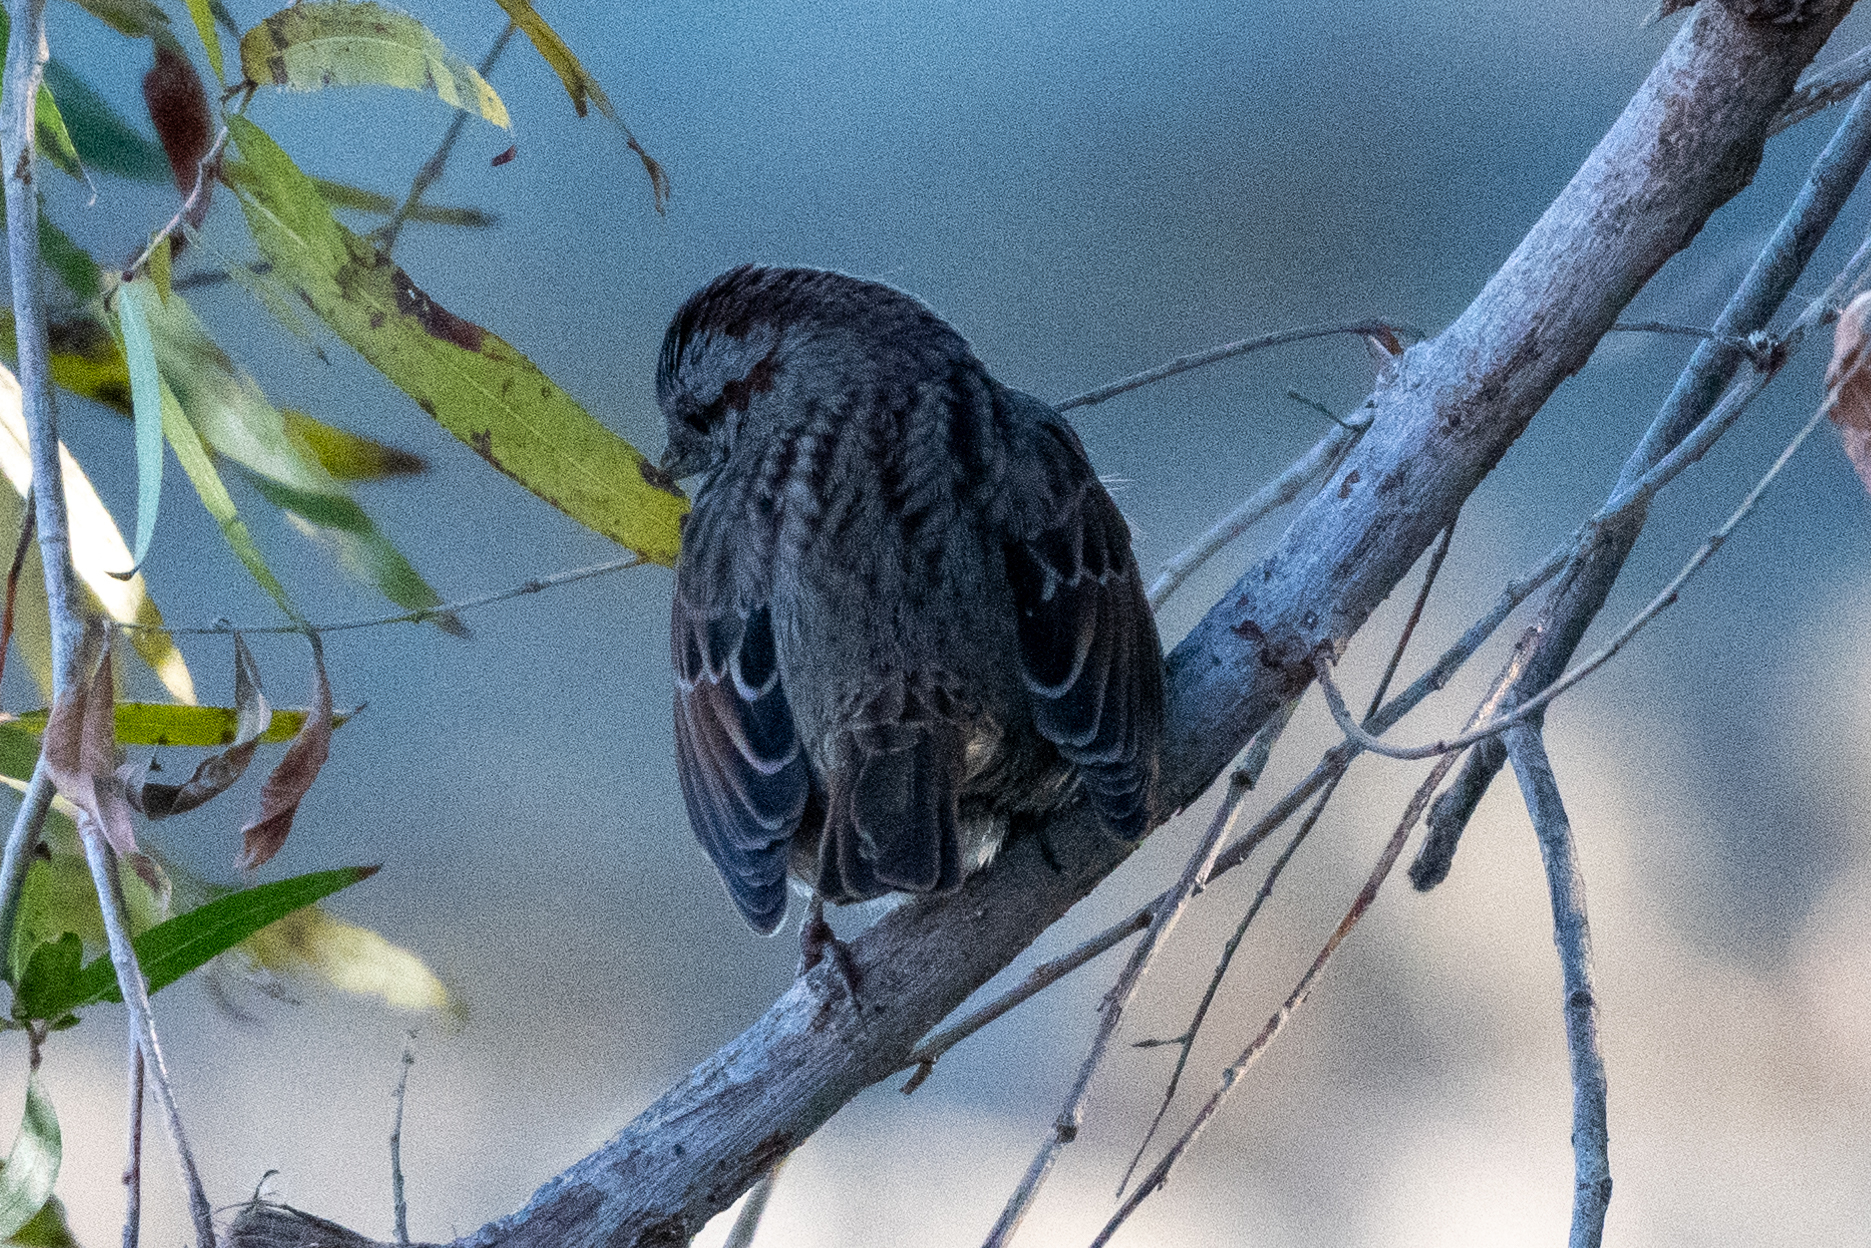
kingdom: Animalia
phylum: Chordata
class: Aves
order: Passeriformes
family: Passerellidae
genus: Melospiza
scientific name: Melospiza melodia
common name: Song sparrow
